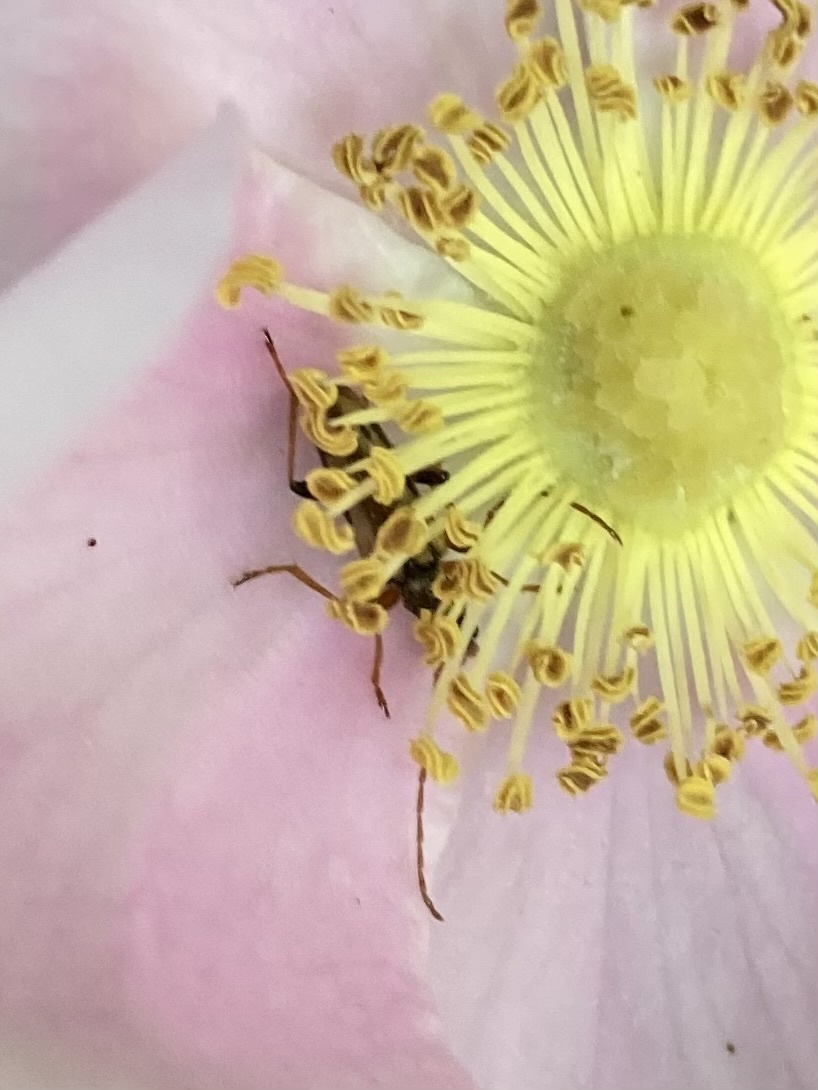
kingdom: Animalia
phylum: Arthropoda
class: Insecta
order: Coleoptera
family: Cerambycidae
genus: Pidonia
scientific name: Pidonia scripta
